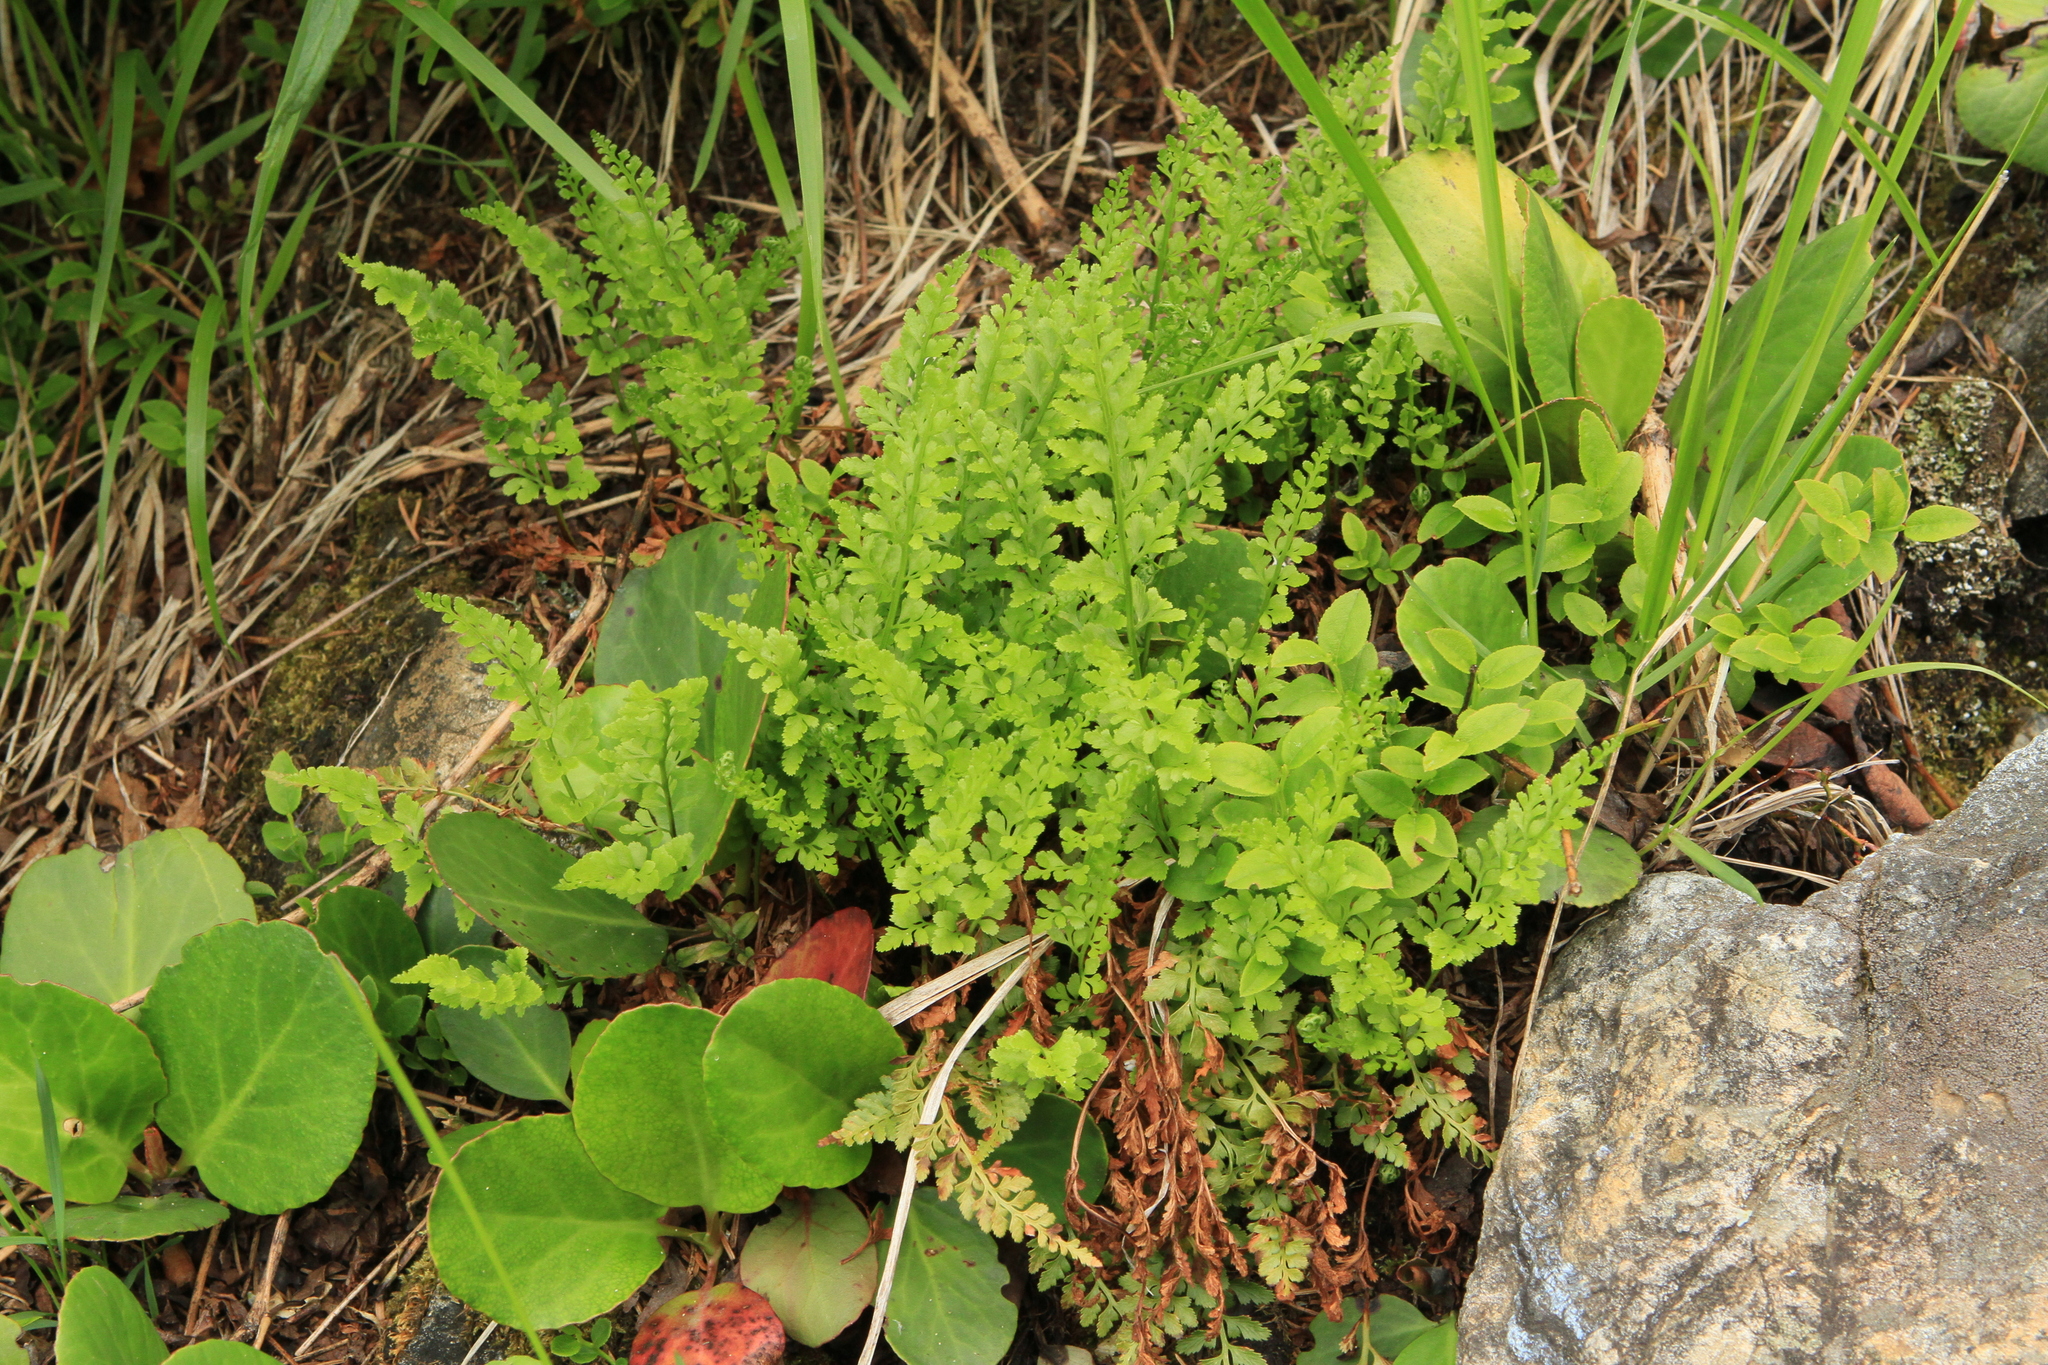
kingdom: Plantae
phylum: Tracheophyta
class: Magnoliopsida
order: Saxifragales
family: Saxifragaceae
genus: Bergenia
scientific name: Bergenia crassifolia
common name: Elephant-ears
